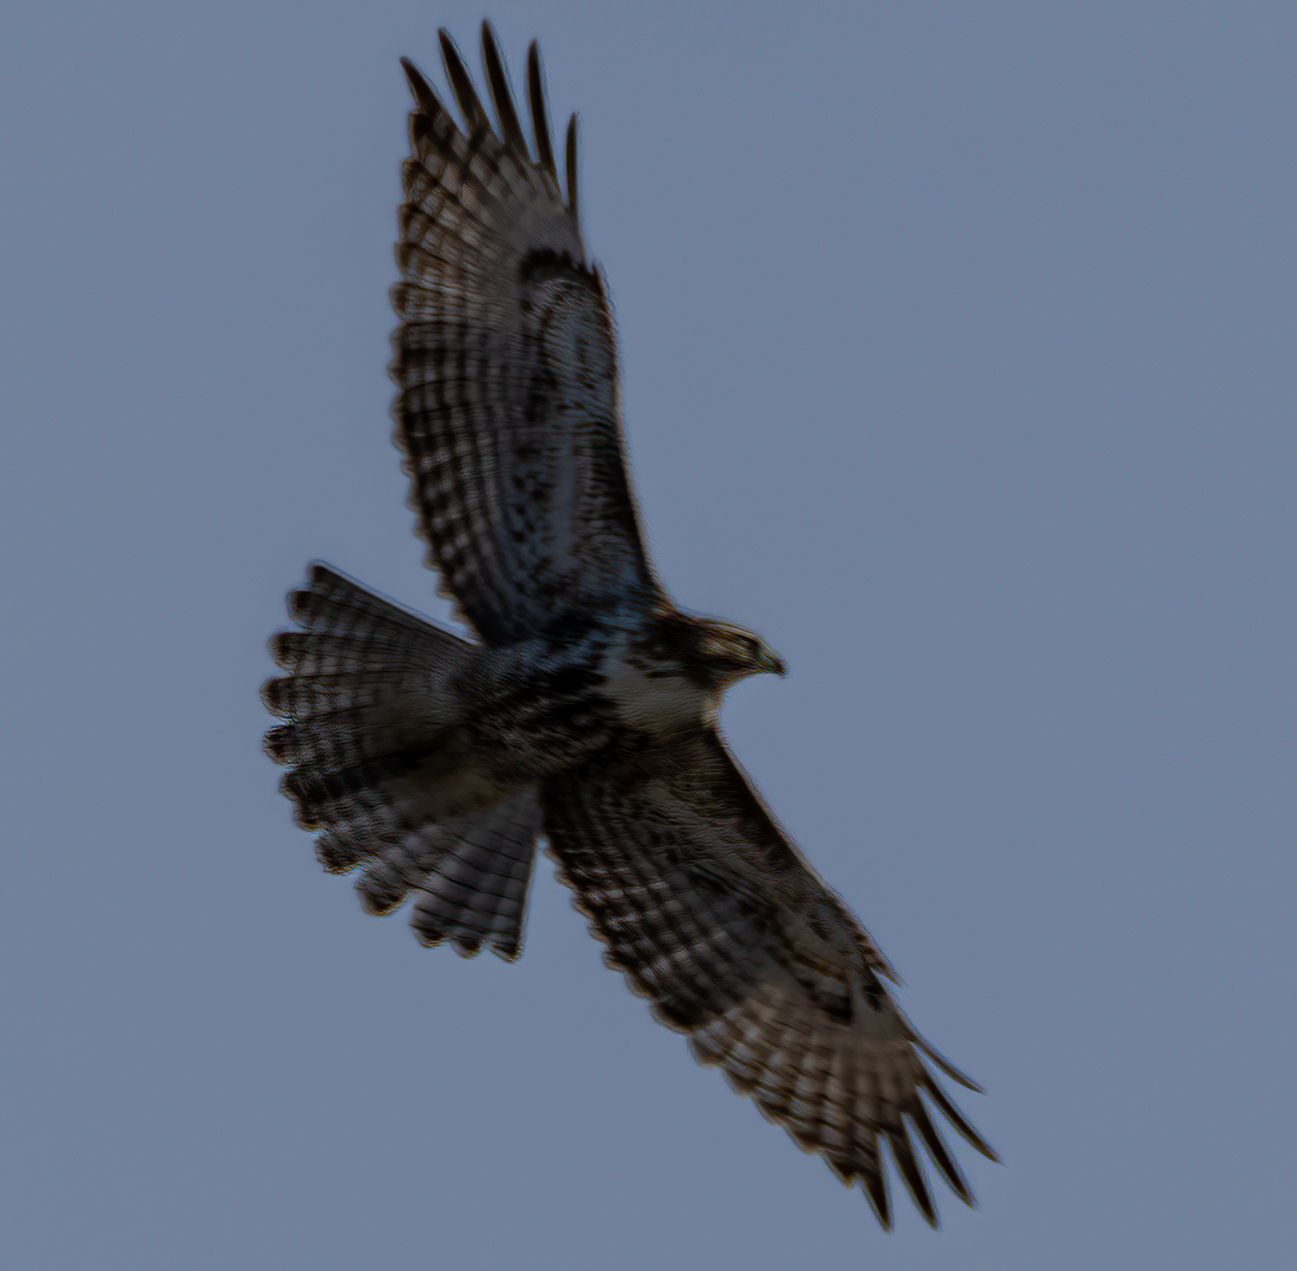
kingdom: Animalia
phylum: Chordata
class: Aves
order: Accipitriformes
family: Accipitridae
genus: Buteo
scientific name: Buteo jamaicensis
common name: Red-tailed hawk
